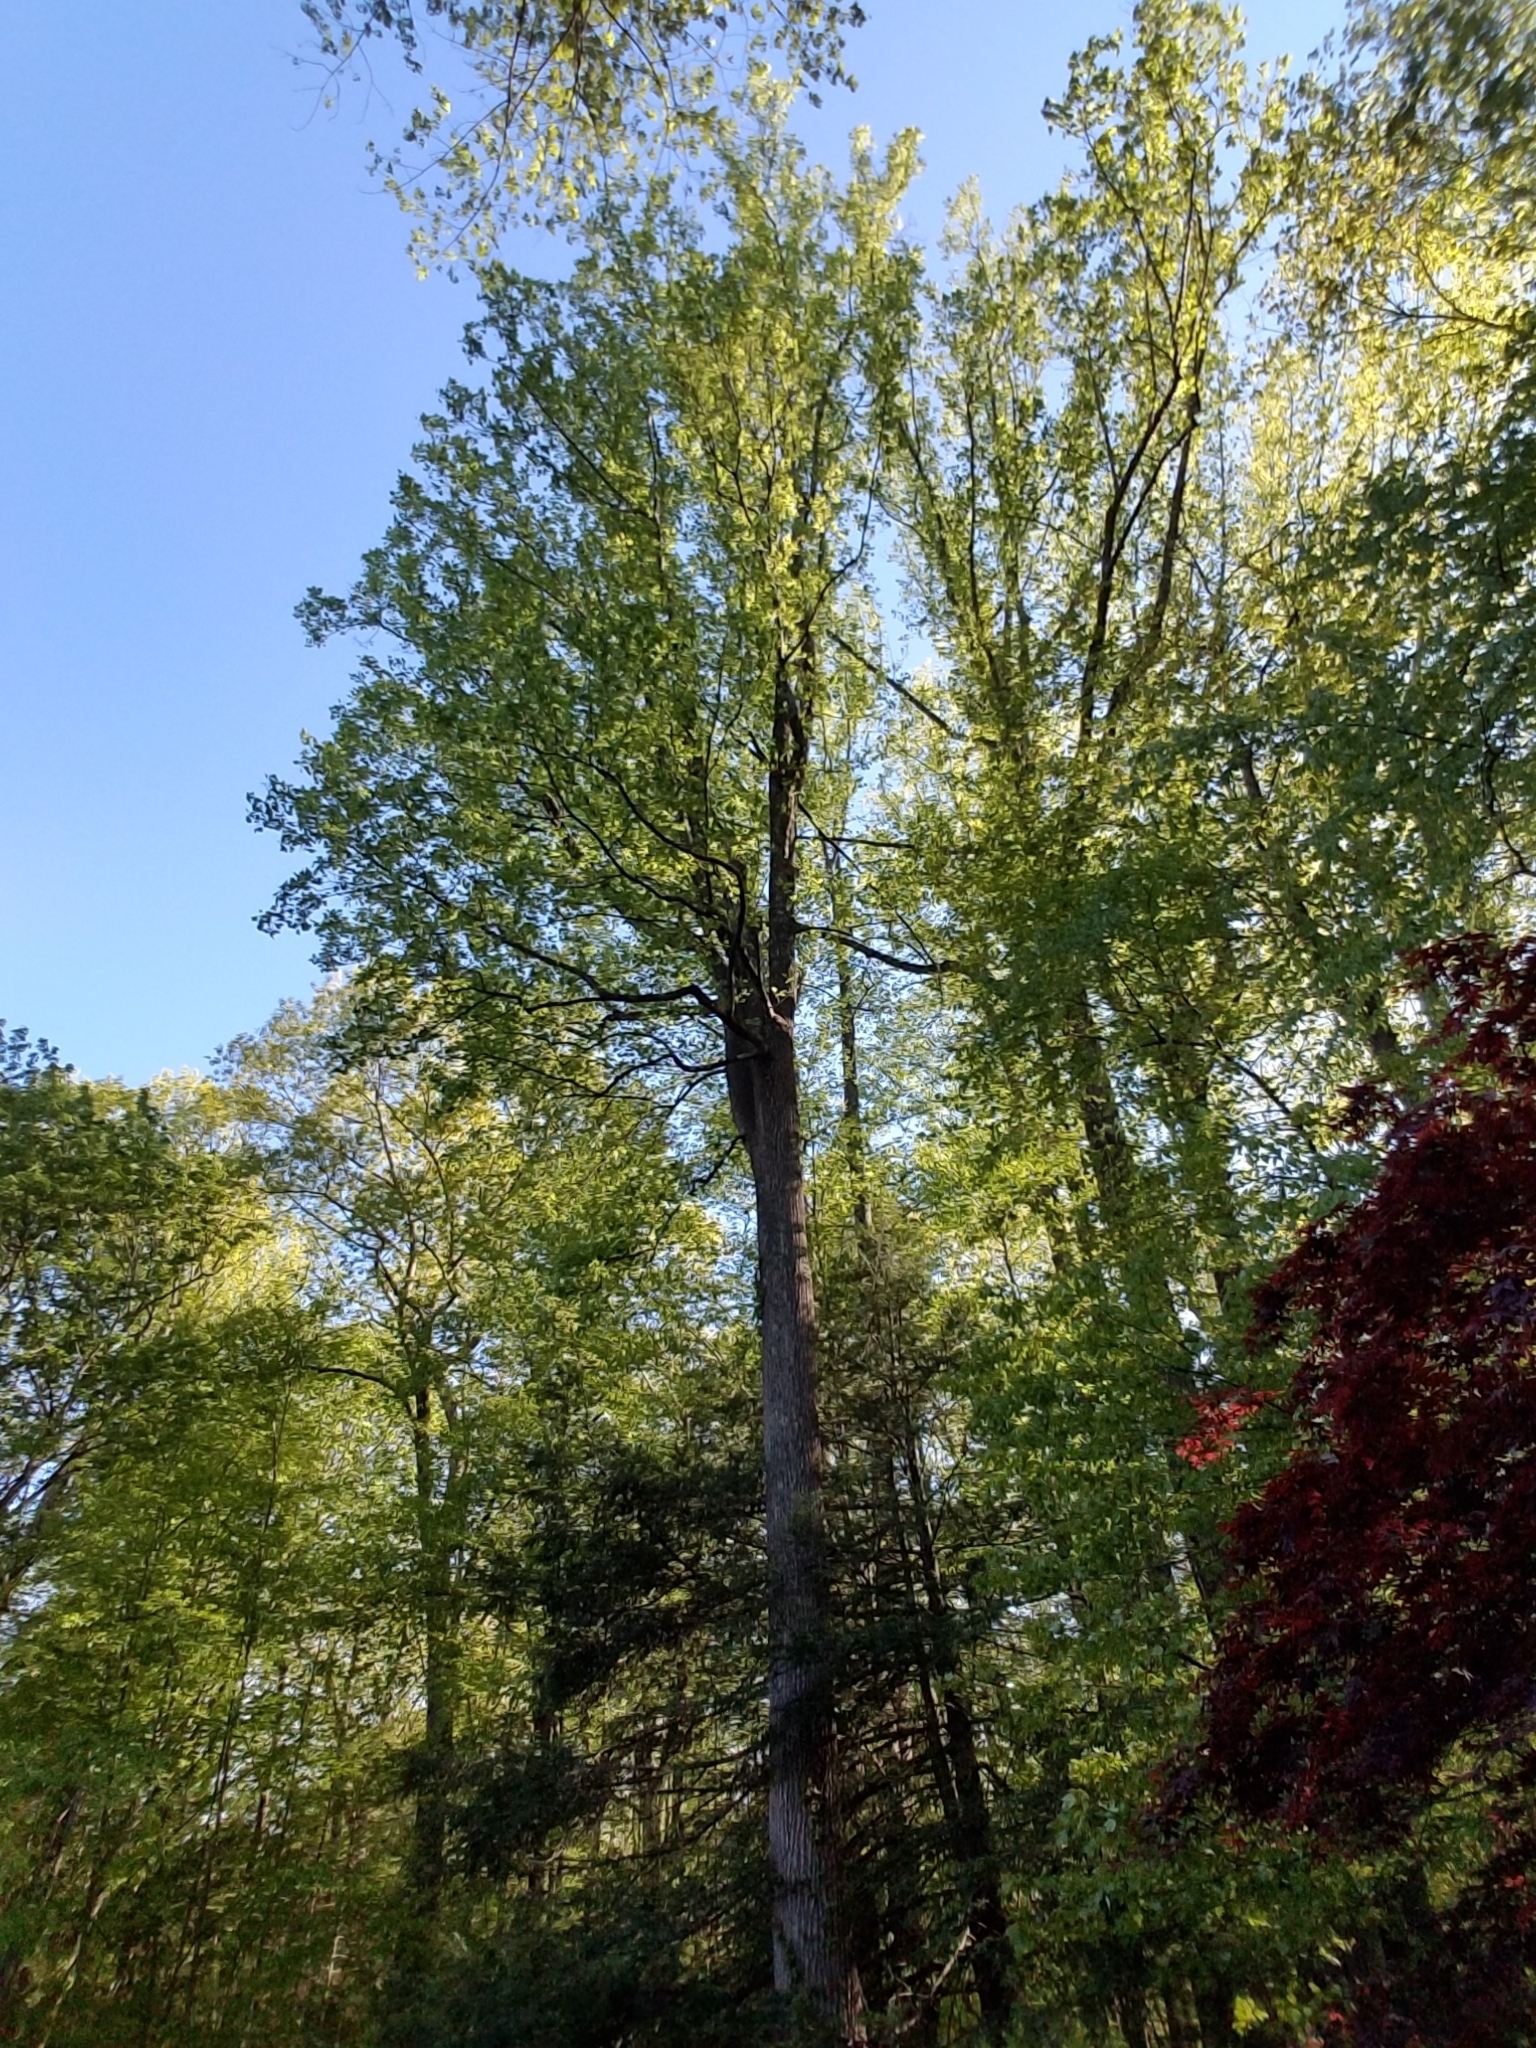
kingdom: Plantae
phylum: Tracheophyta
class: Magnoliopsida
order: Magnoliales
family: Magnoliaceae
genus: Liriodendron
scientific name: Liriodendron tulipifera
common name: Tulip tree
